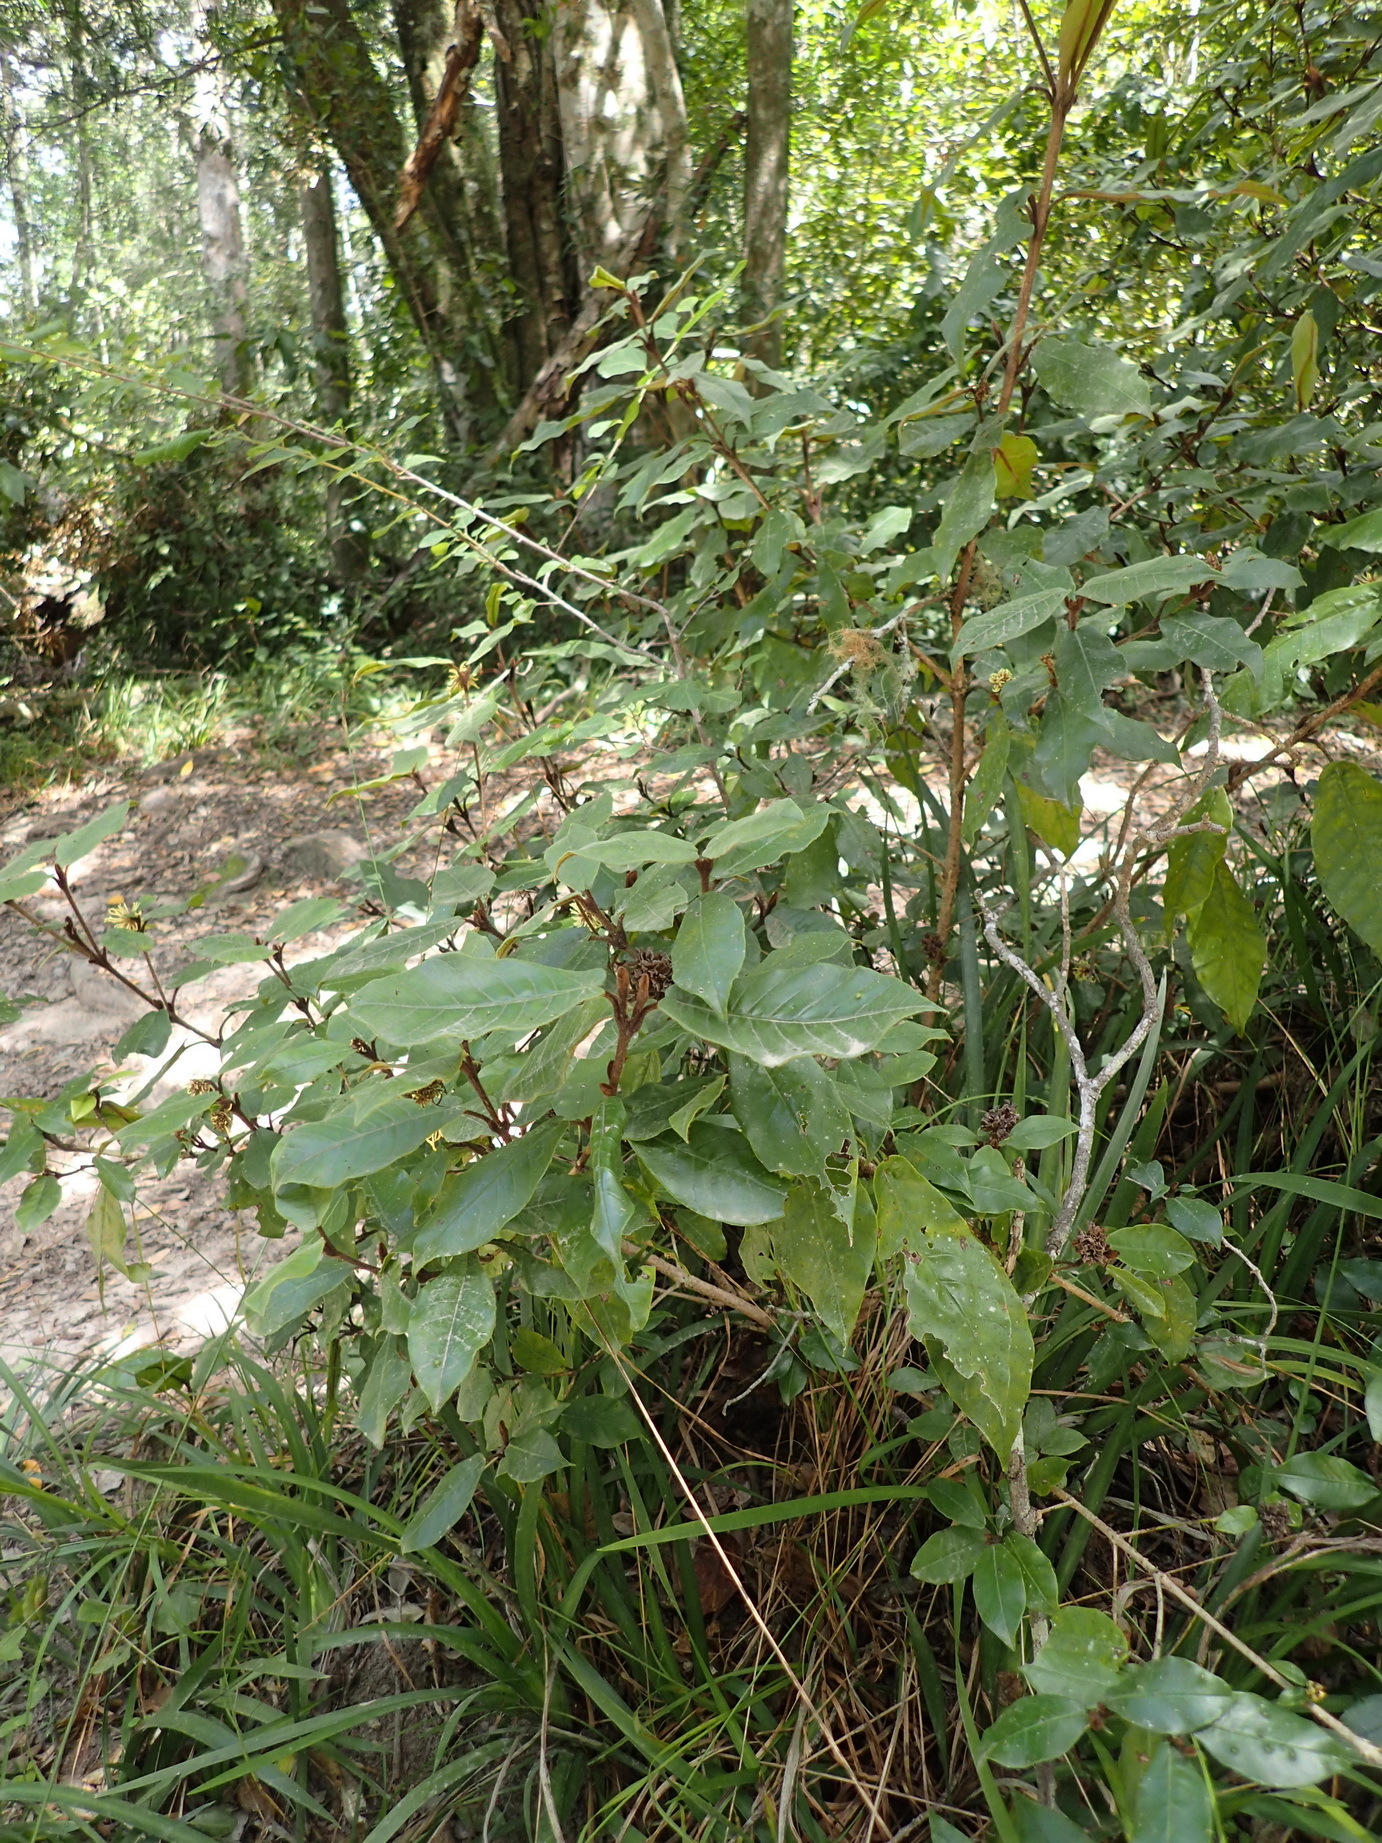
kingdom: Plantae
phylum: Tracheophyta
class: Magnoliopsida
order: Saxifragales
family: Hamamelidaceae
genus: Trichocladus
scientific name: Trichocladus crinitus
